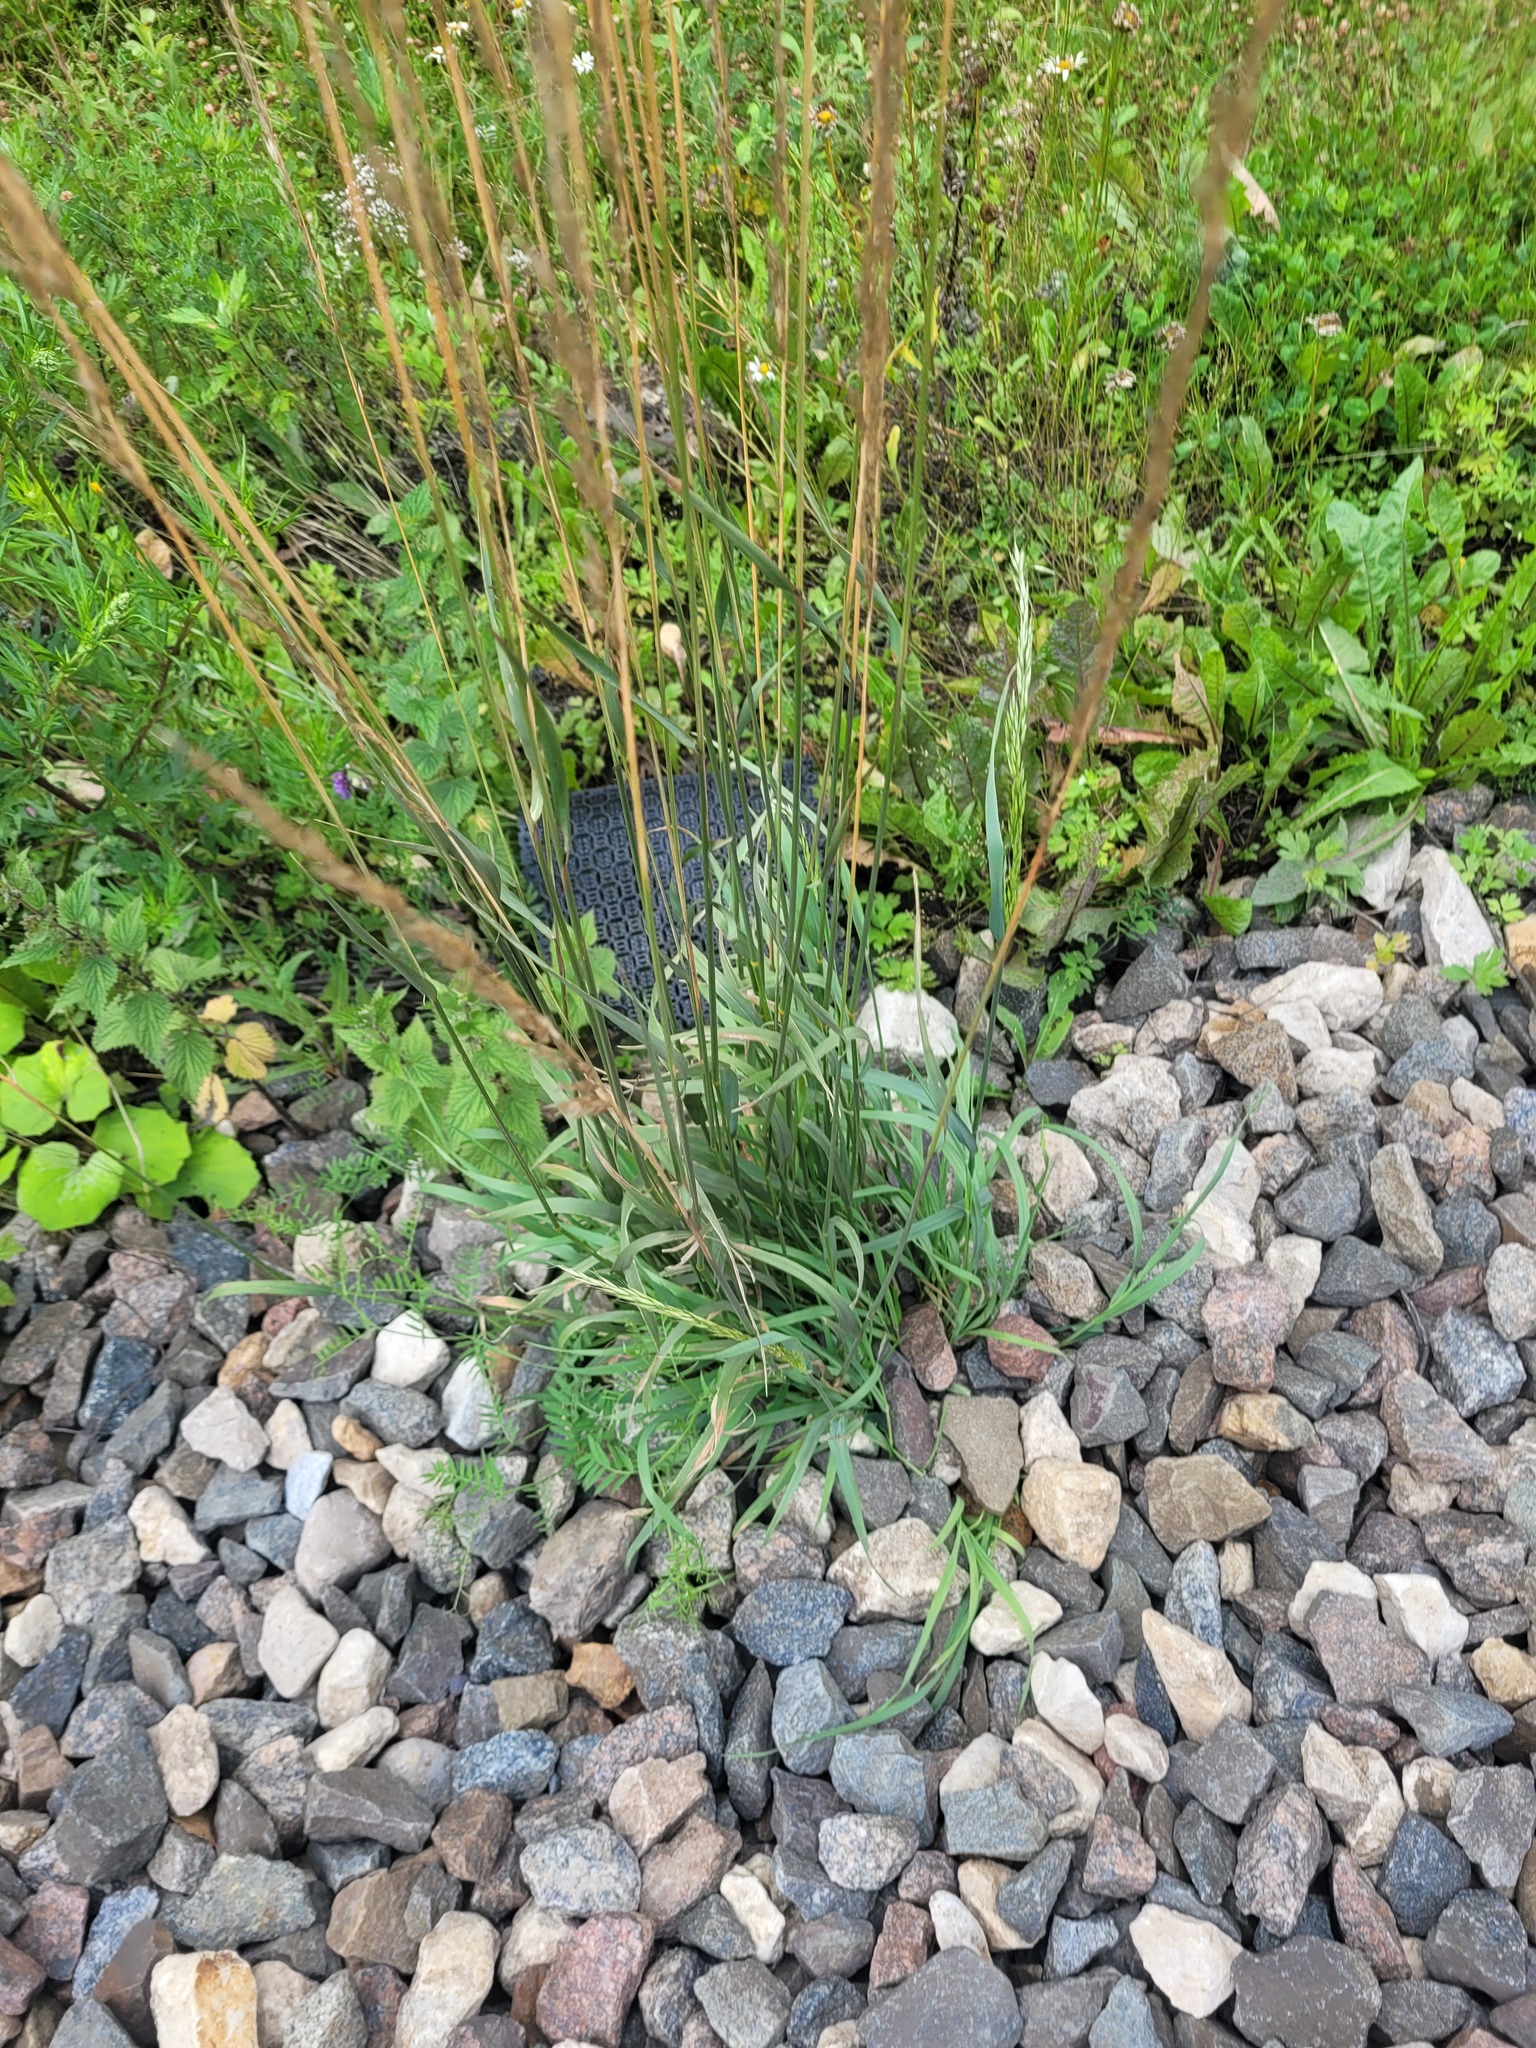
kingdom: Plantae
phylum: Tracheophyta
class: Liliopsida
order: Poales
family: Poaceae
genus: Arrhenatherum
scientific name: Arrhenatherum elatius
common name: Tall oatgrass
